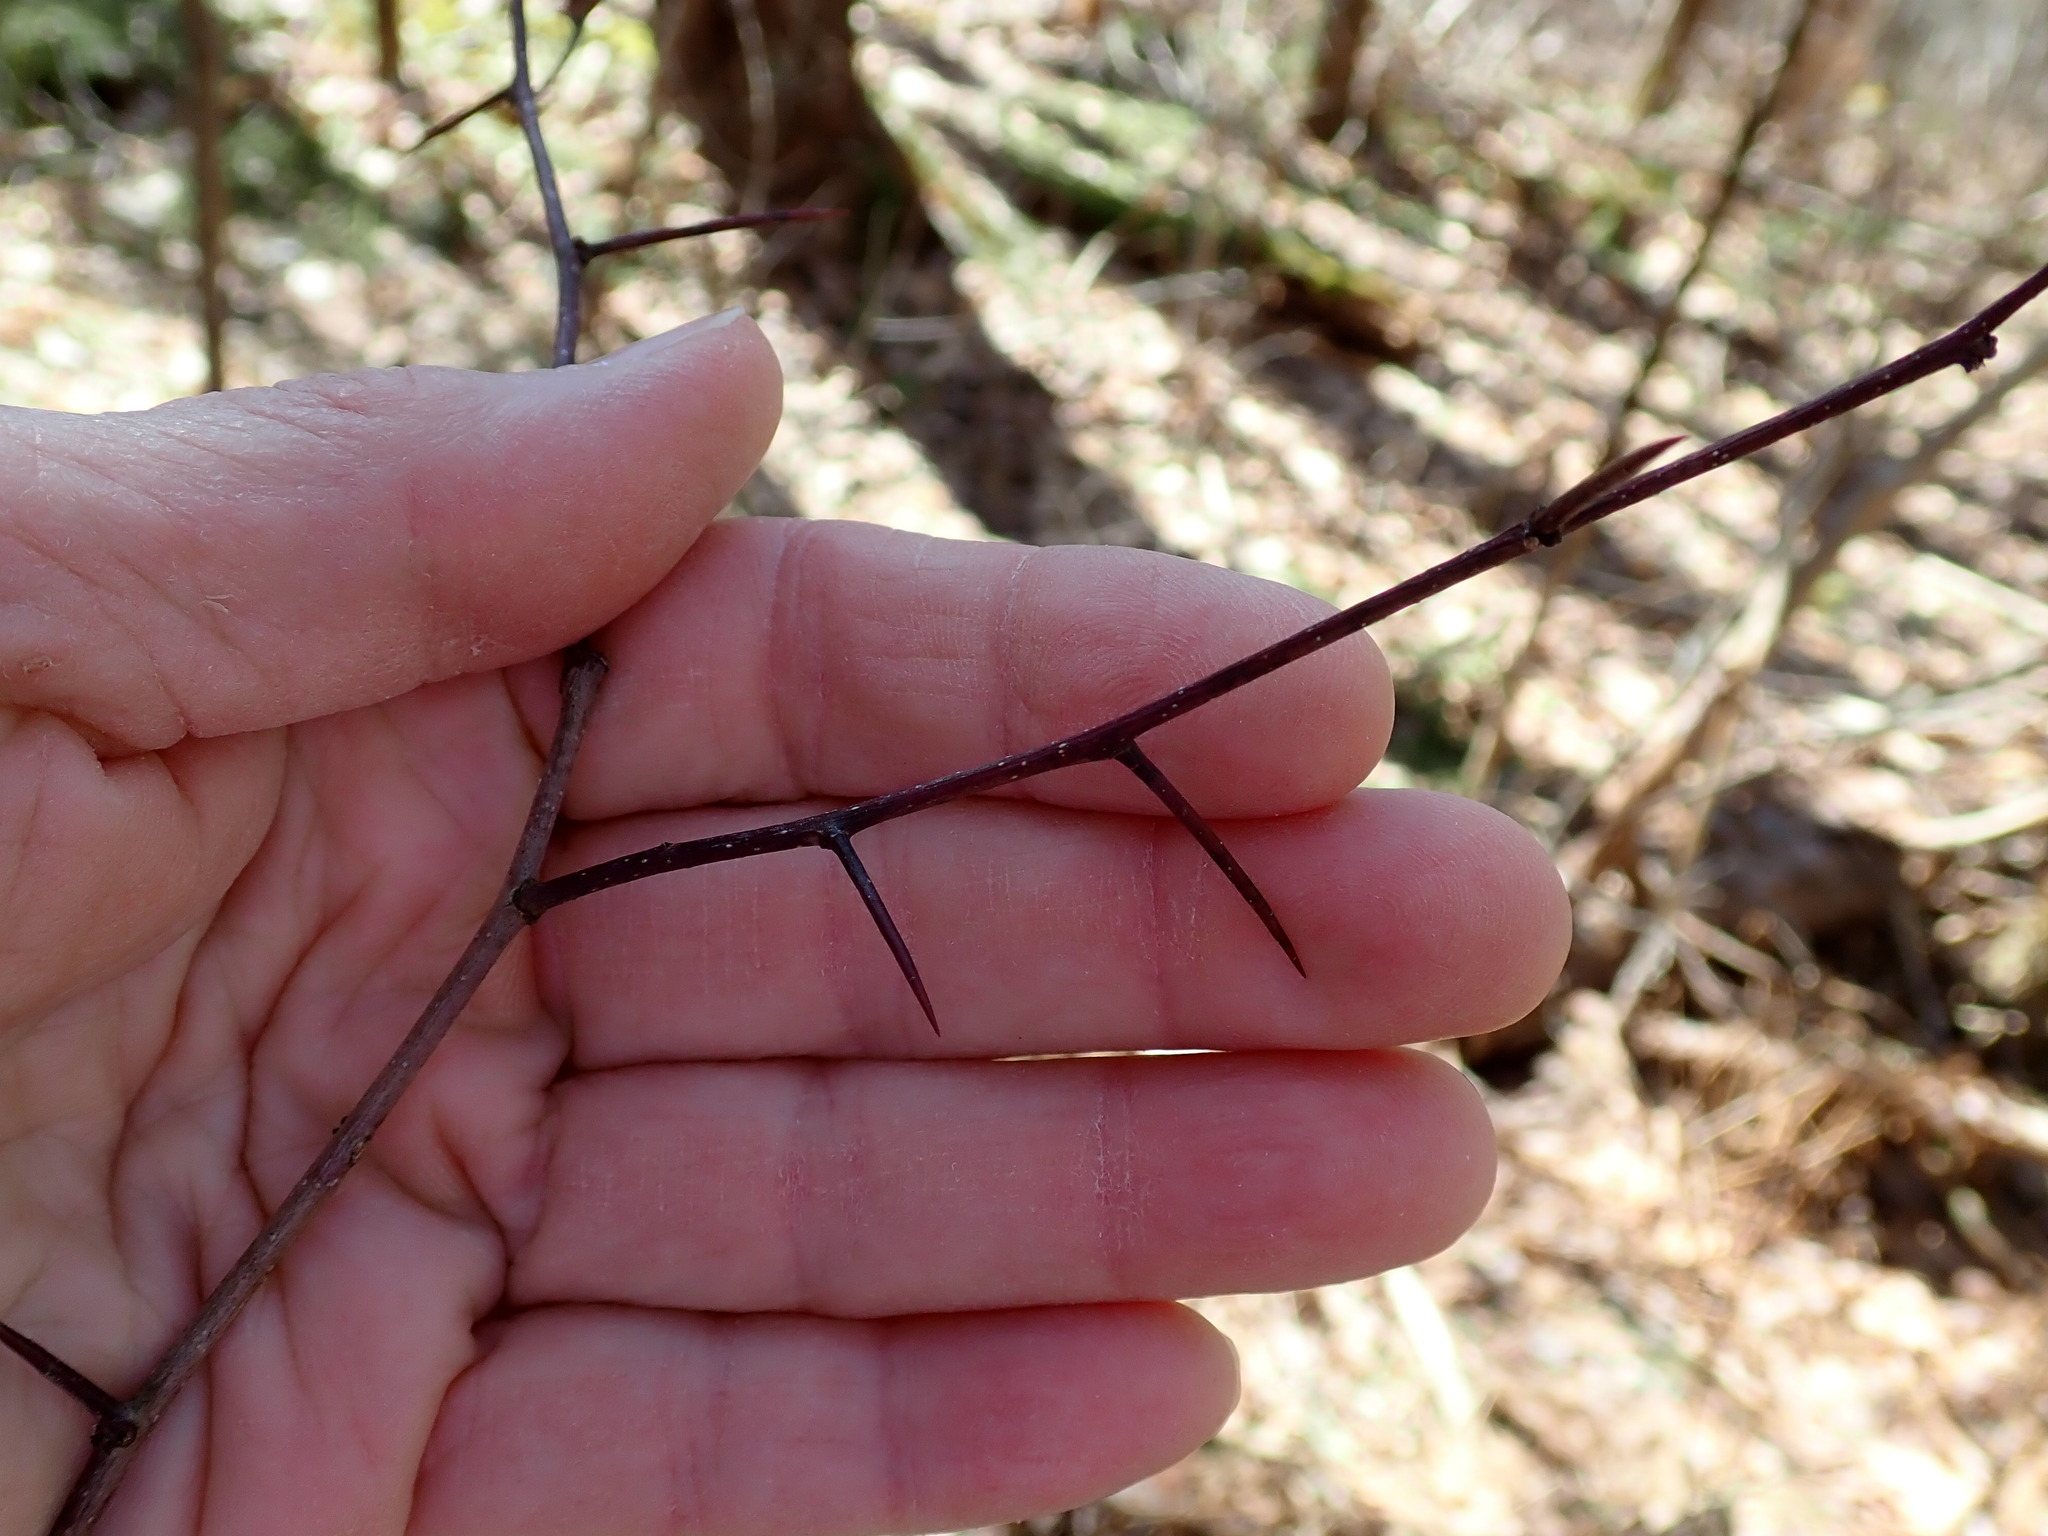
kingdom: Plantae
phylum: Tracheophyta
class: Magnoliopsida
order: Rosales
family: Rosaceae
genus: Crataegus
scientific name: Crataegus
